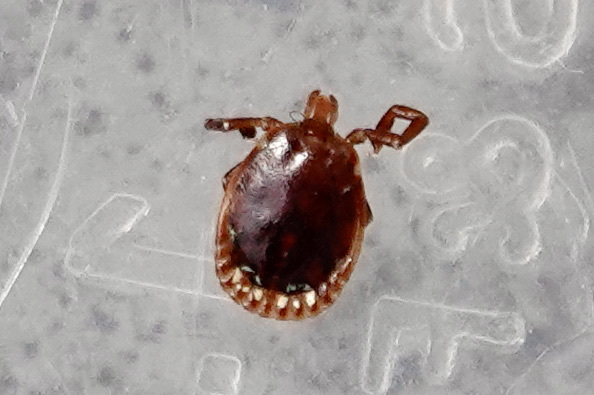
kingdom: Animalia
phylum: Arthropoda
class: Arachnida
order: Ixodida
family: Ixodidae
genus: Amblyomma
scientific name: Amblyomma americanum
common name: Lone star tick
